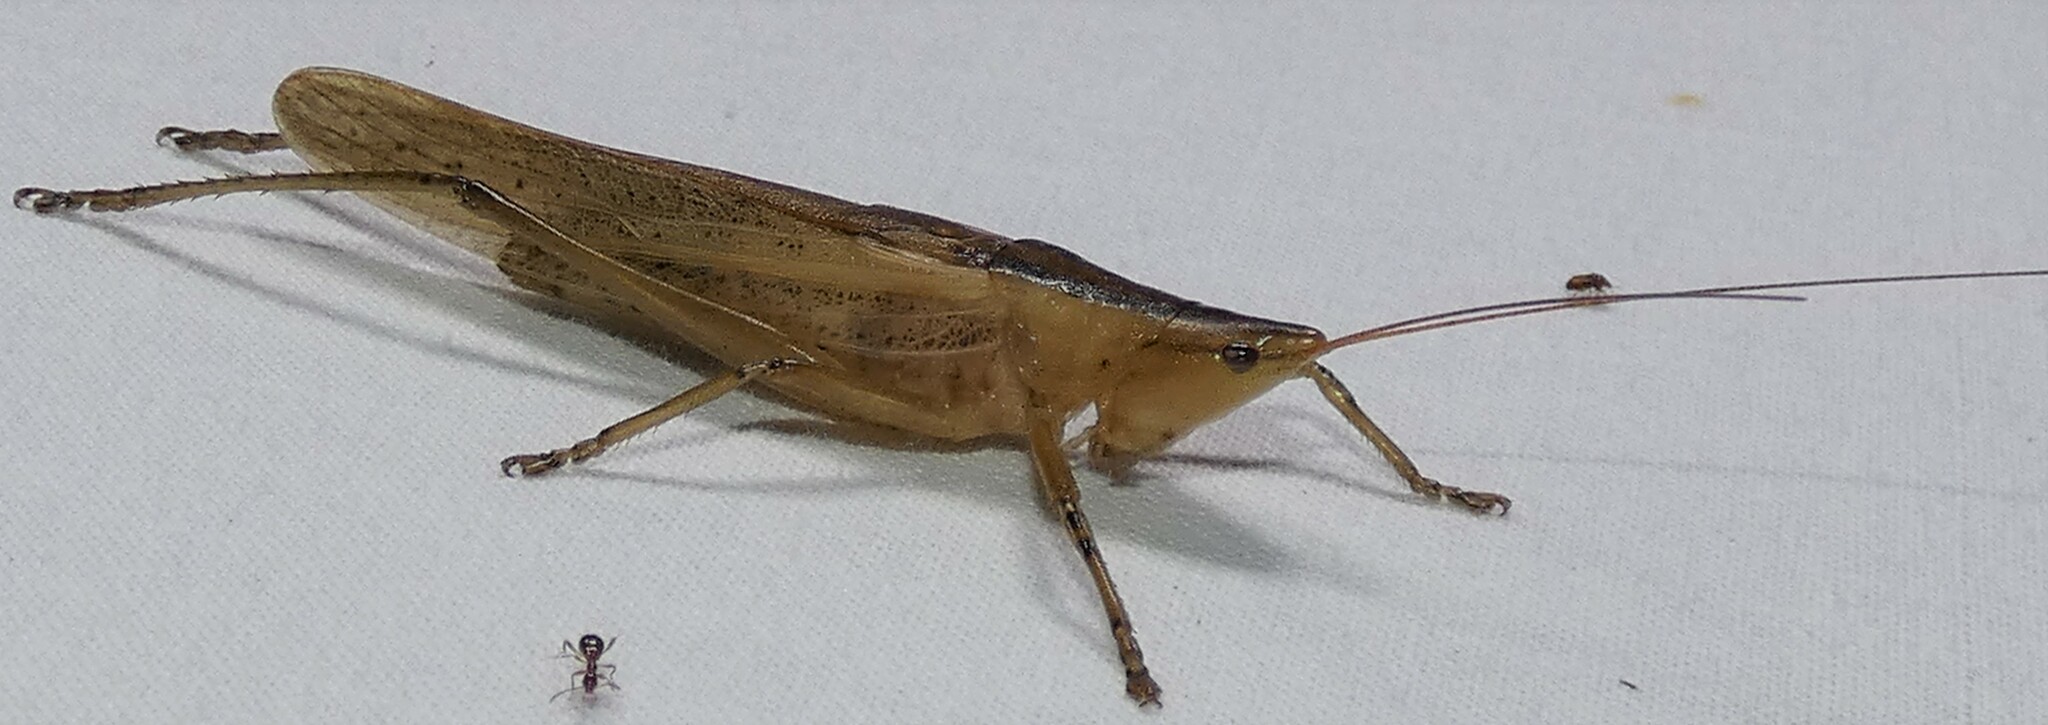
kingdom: Animalia
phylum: Arthropoda
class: Insecta
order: Orthoptera
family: Tettigoniidae
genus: Bucrates
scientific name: Bucrates malivolans
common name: Cattail conehead
